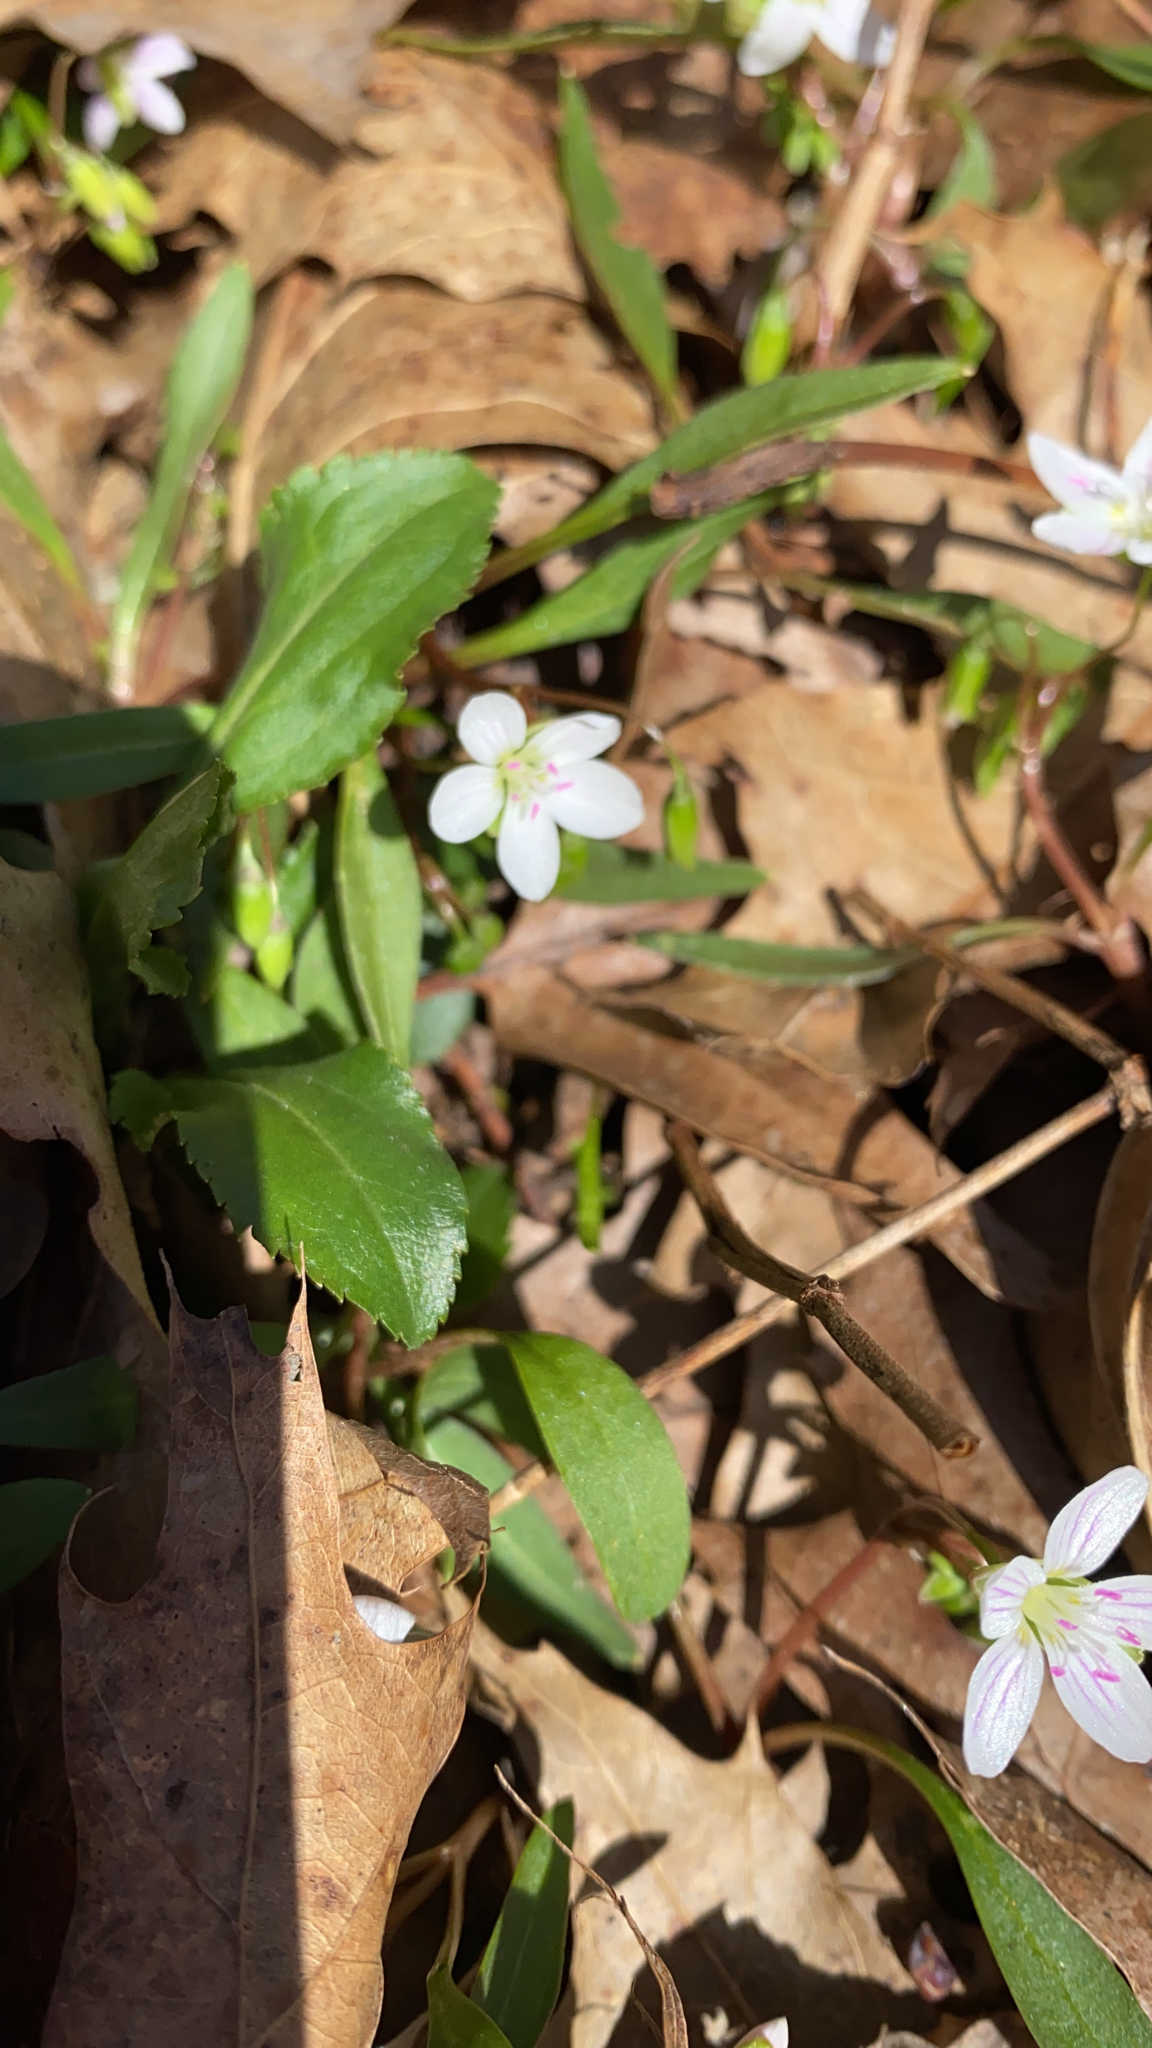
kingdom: Plantae
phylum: Tracheophyta
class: Magnoliopsida
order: Caryophyllales
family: Montiaceae
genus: Claytonia
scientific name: Claytonia virginica
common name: Virginia springbeauty
